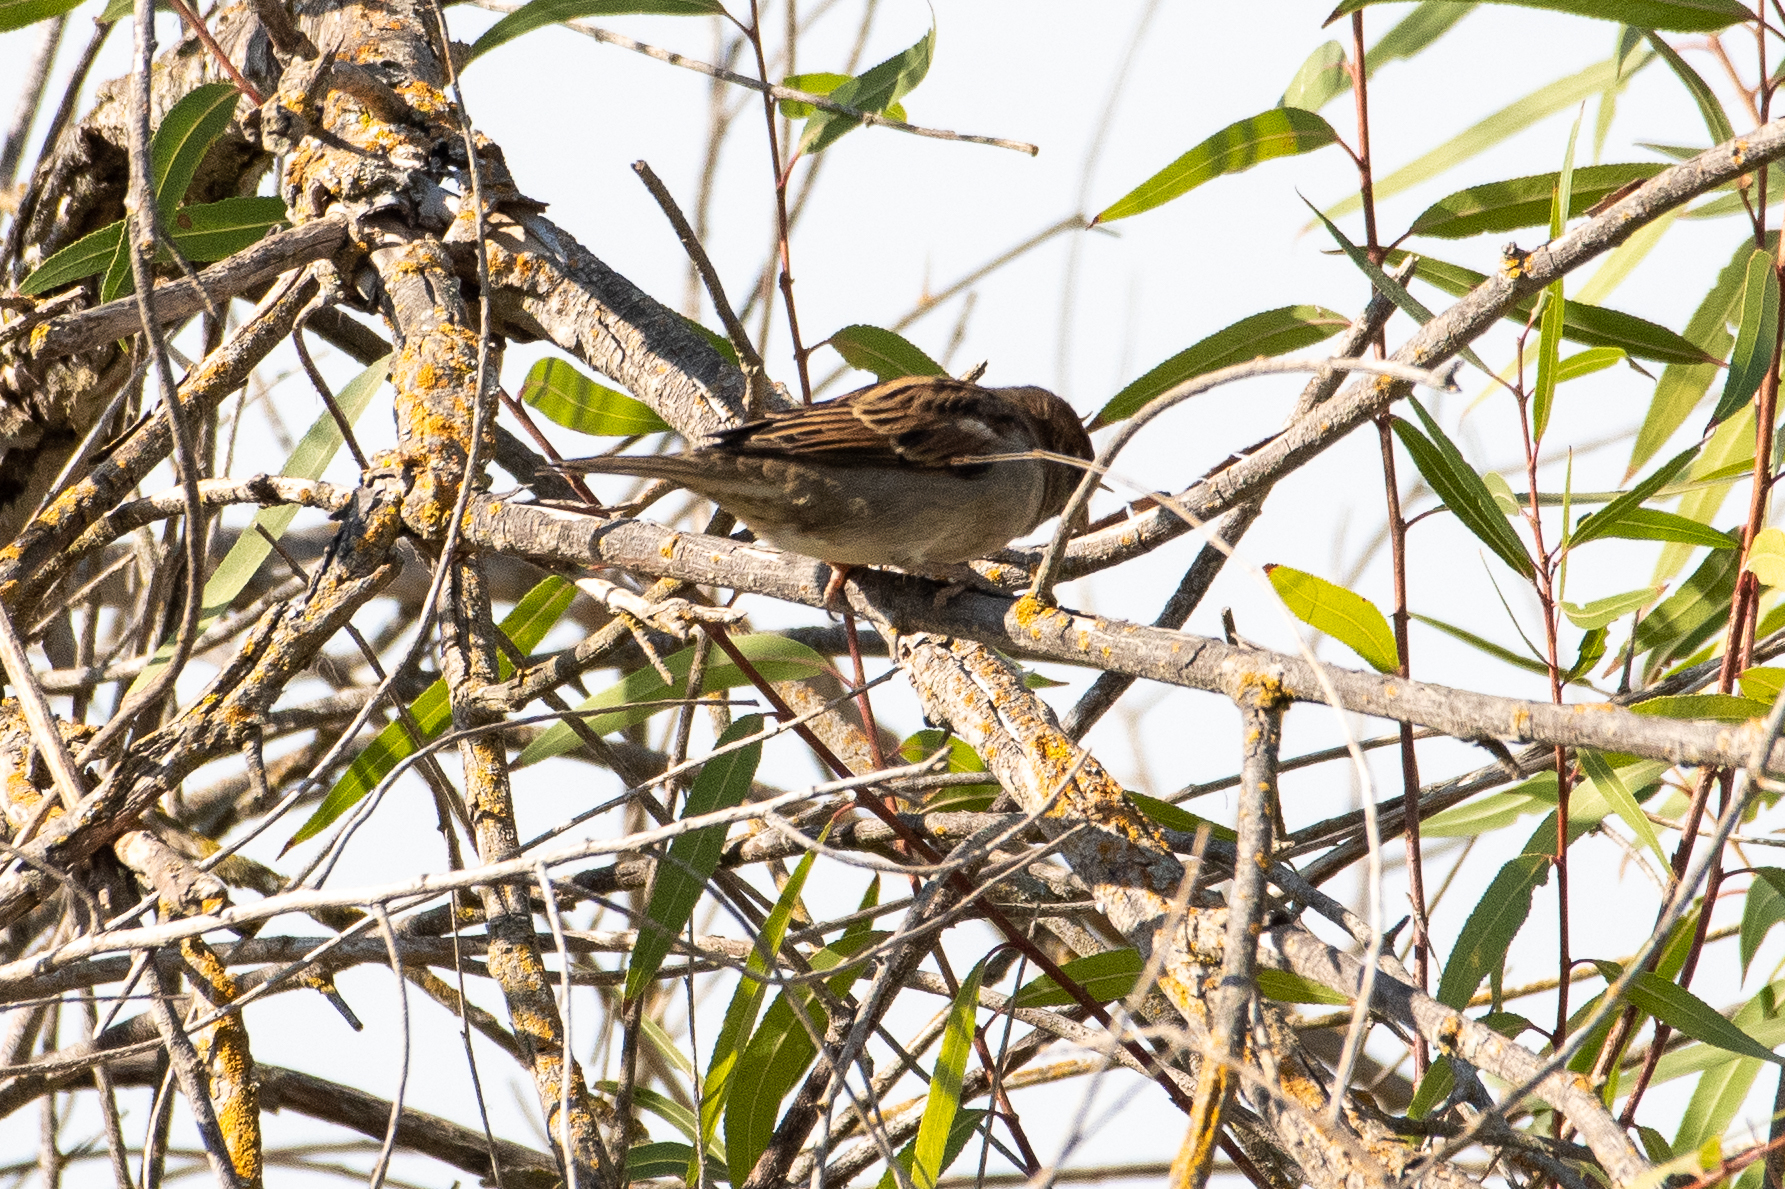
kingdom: Animalia
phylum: Chordata
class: Aves
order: Passeriformes
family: Passeridae
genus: Passer
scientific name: Passer domesticus
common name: House sparrow
